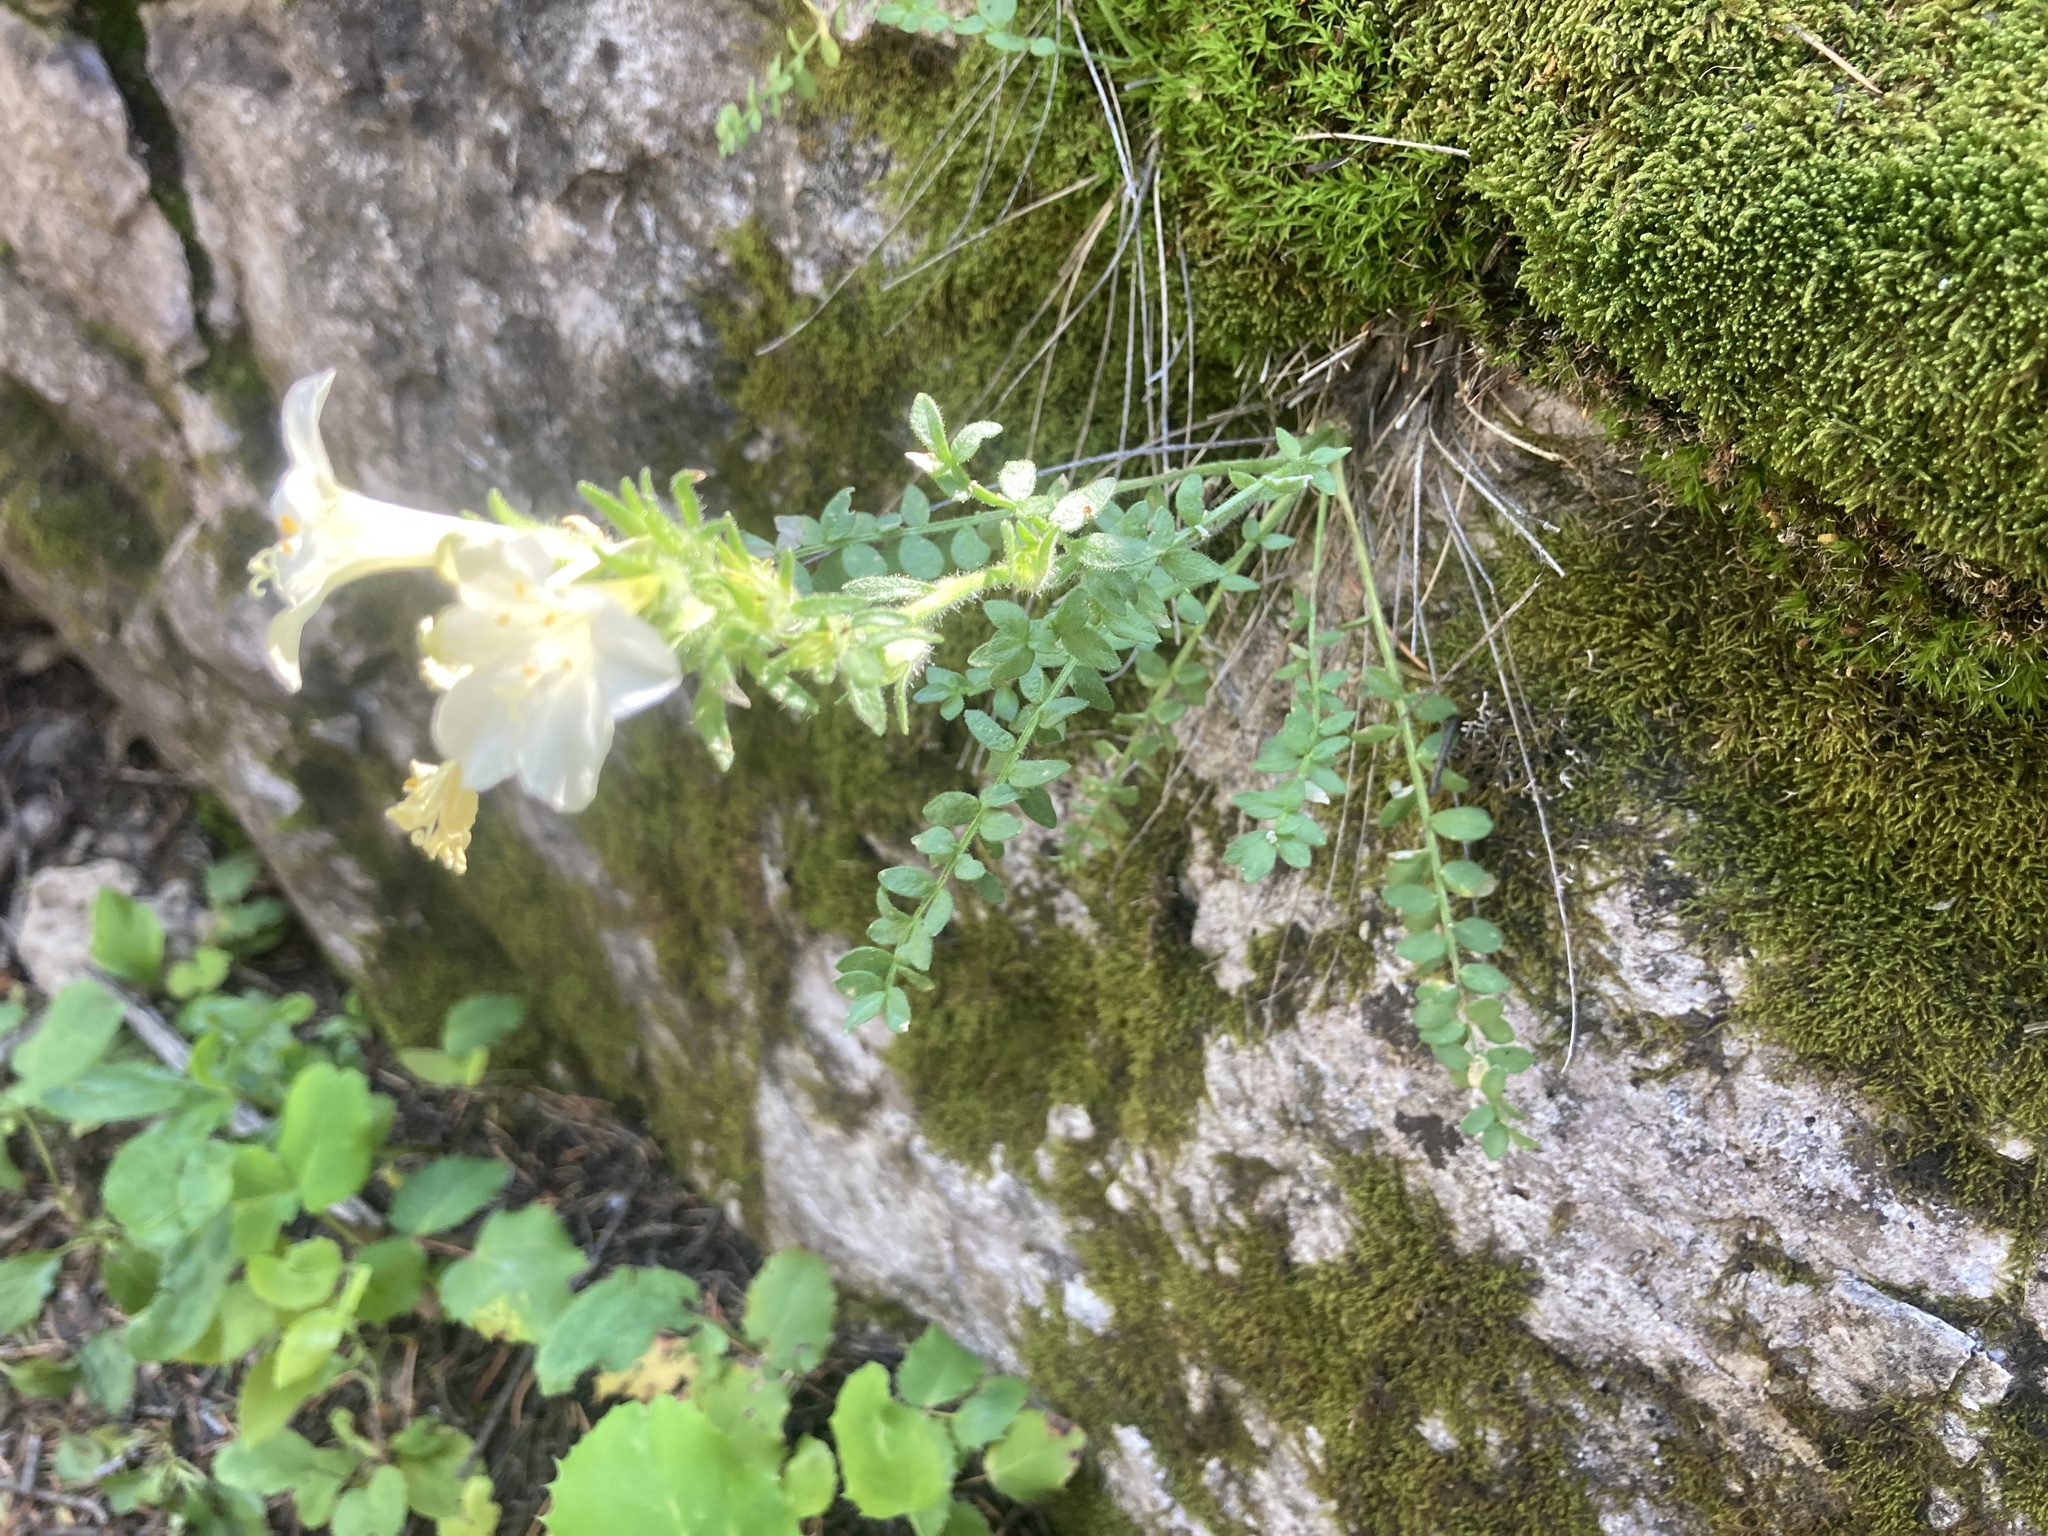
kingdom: Plantae
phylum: Tracheophyta
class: Magnoliopsida
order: Ericales
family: Polemoniaceae
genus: Polemonium
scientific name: Polemonium brandegeei
